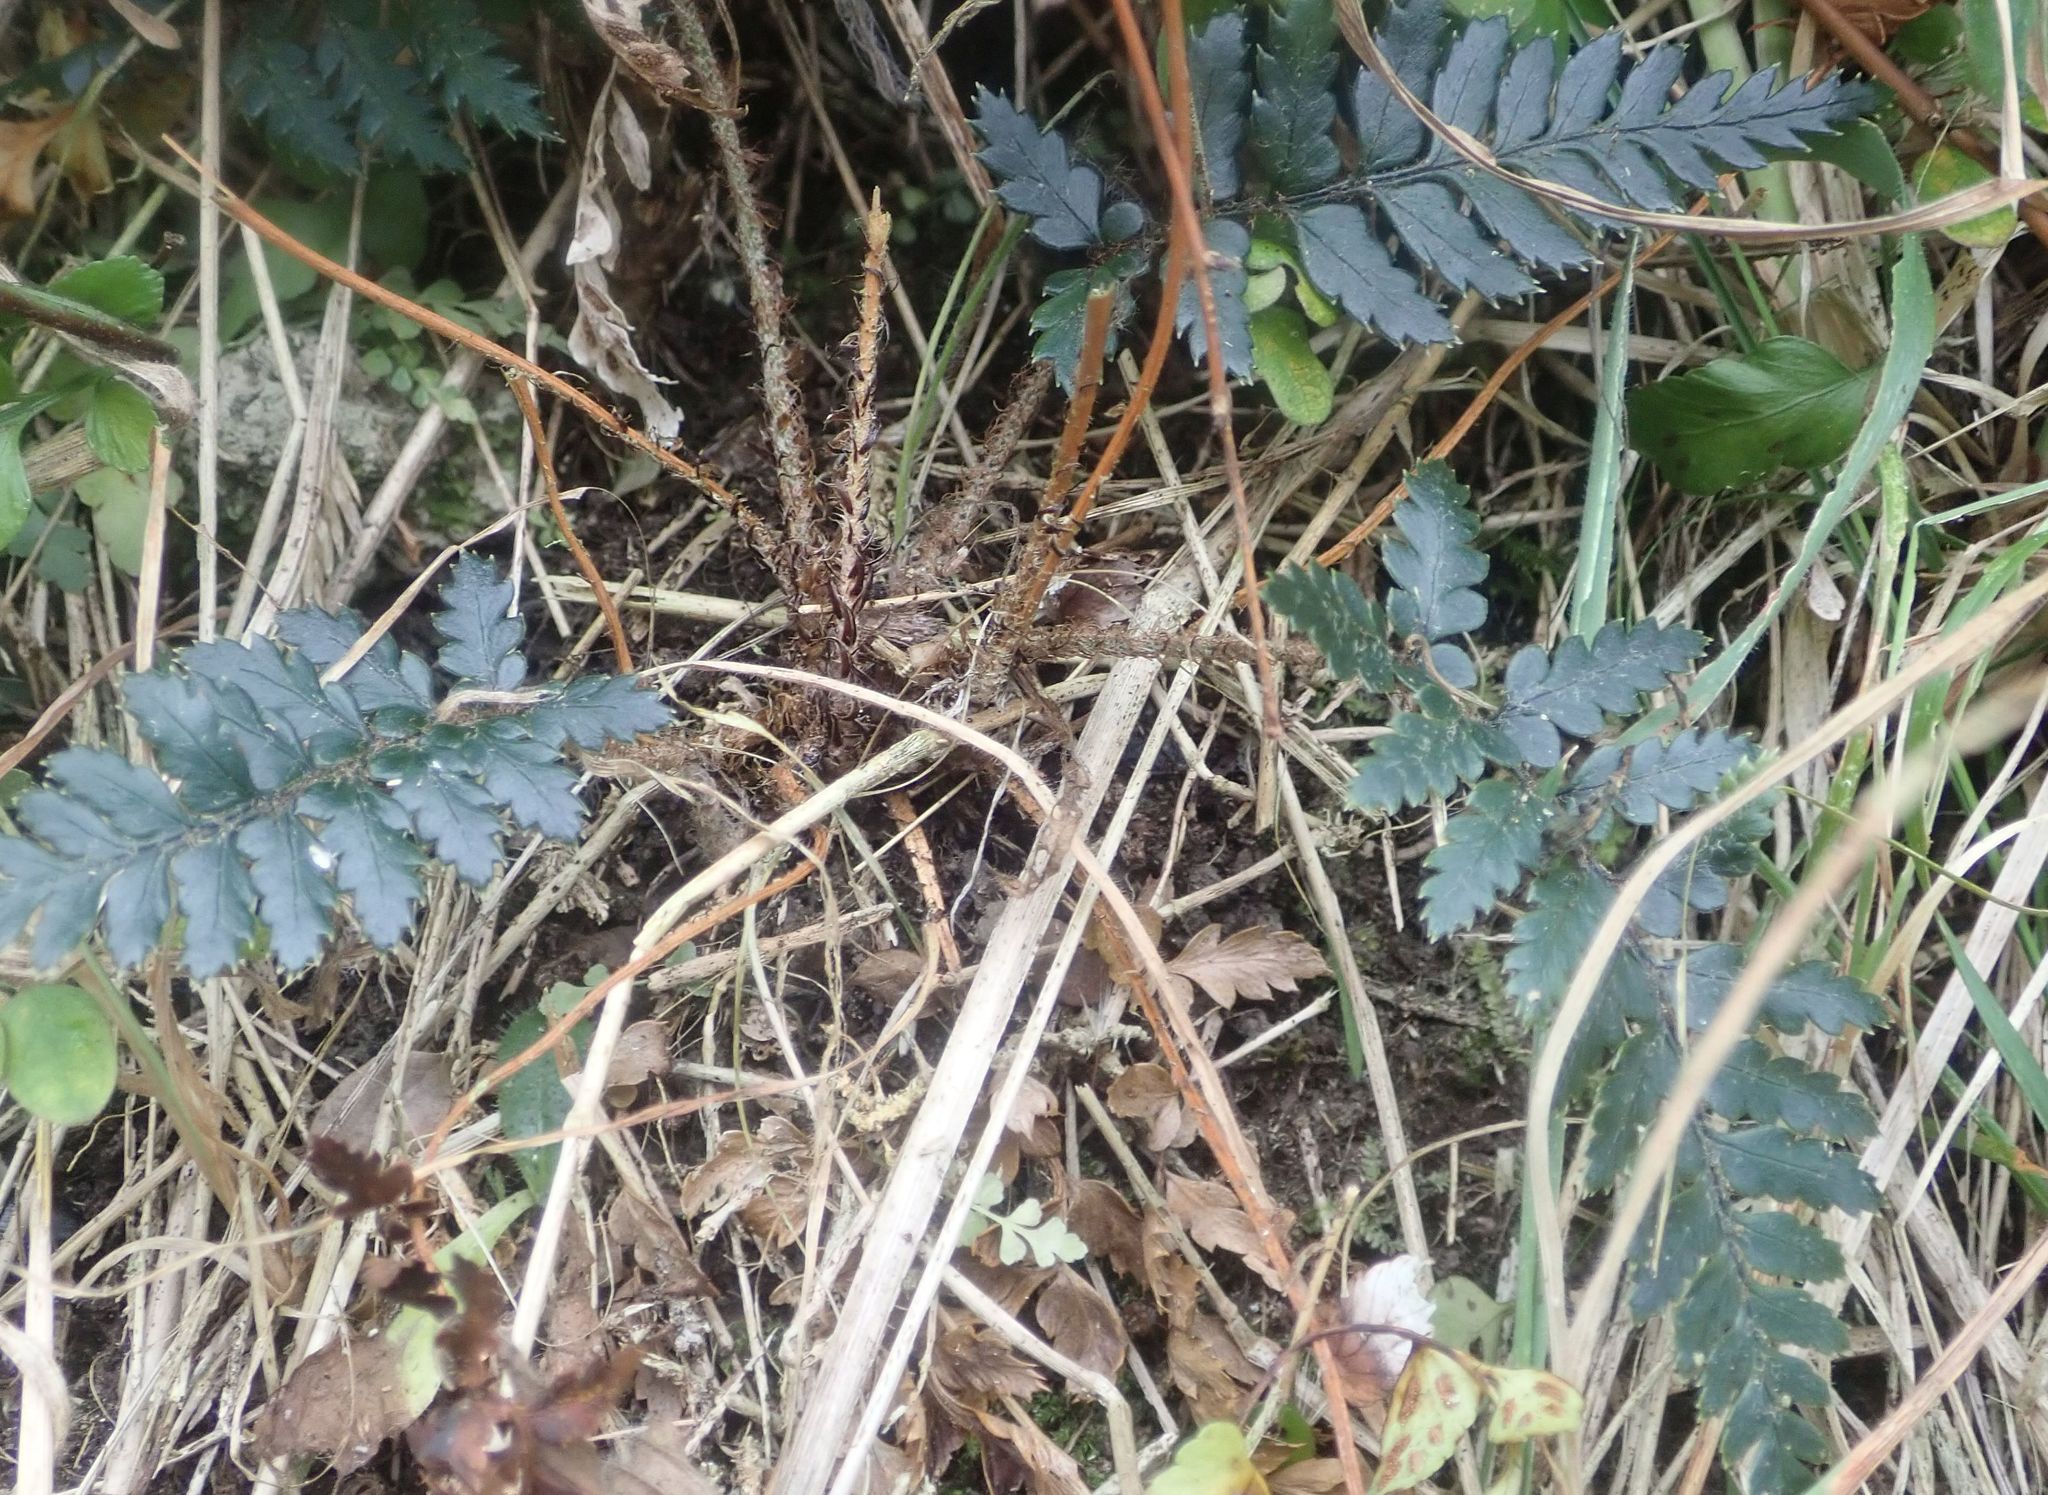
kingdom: Plantae
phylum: Tracheophyta
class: Polypodiopsida
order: Polypodiales
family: Dryopteridaceae
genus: Polystichum
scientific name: Polystichum neozelandicum
